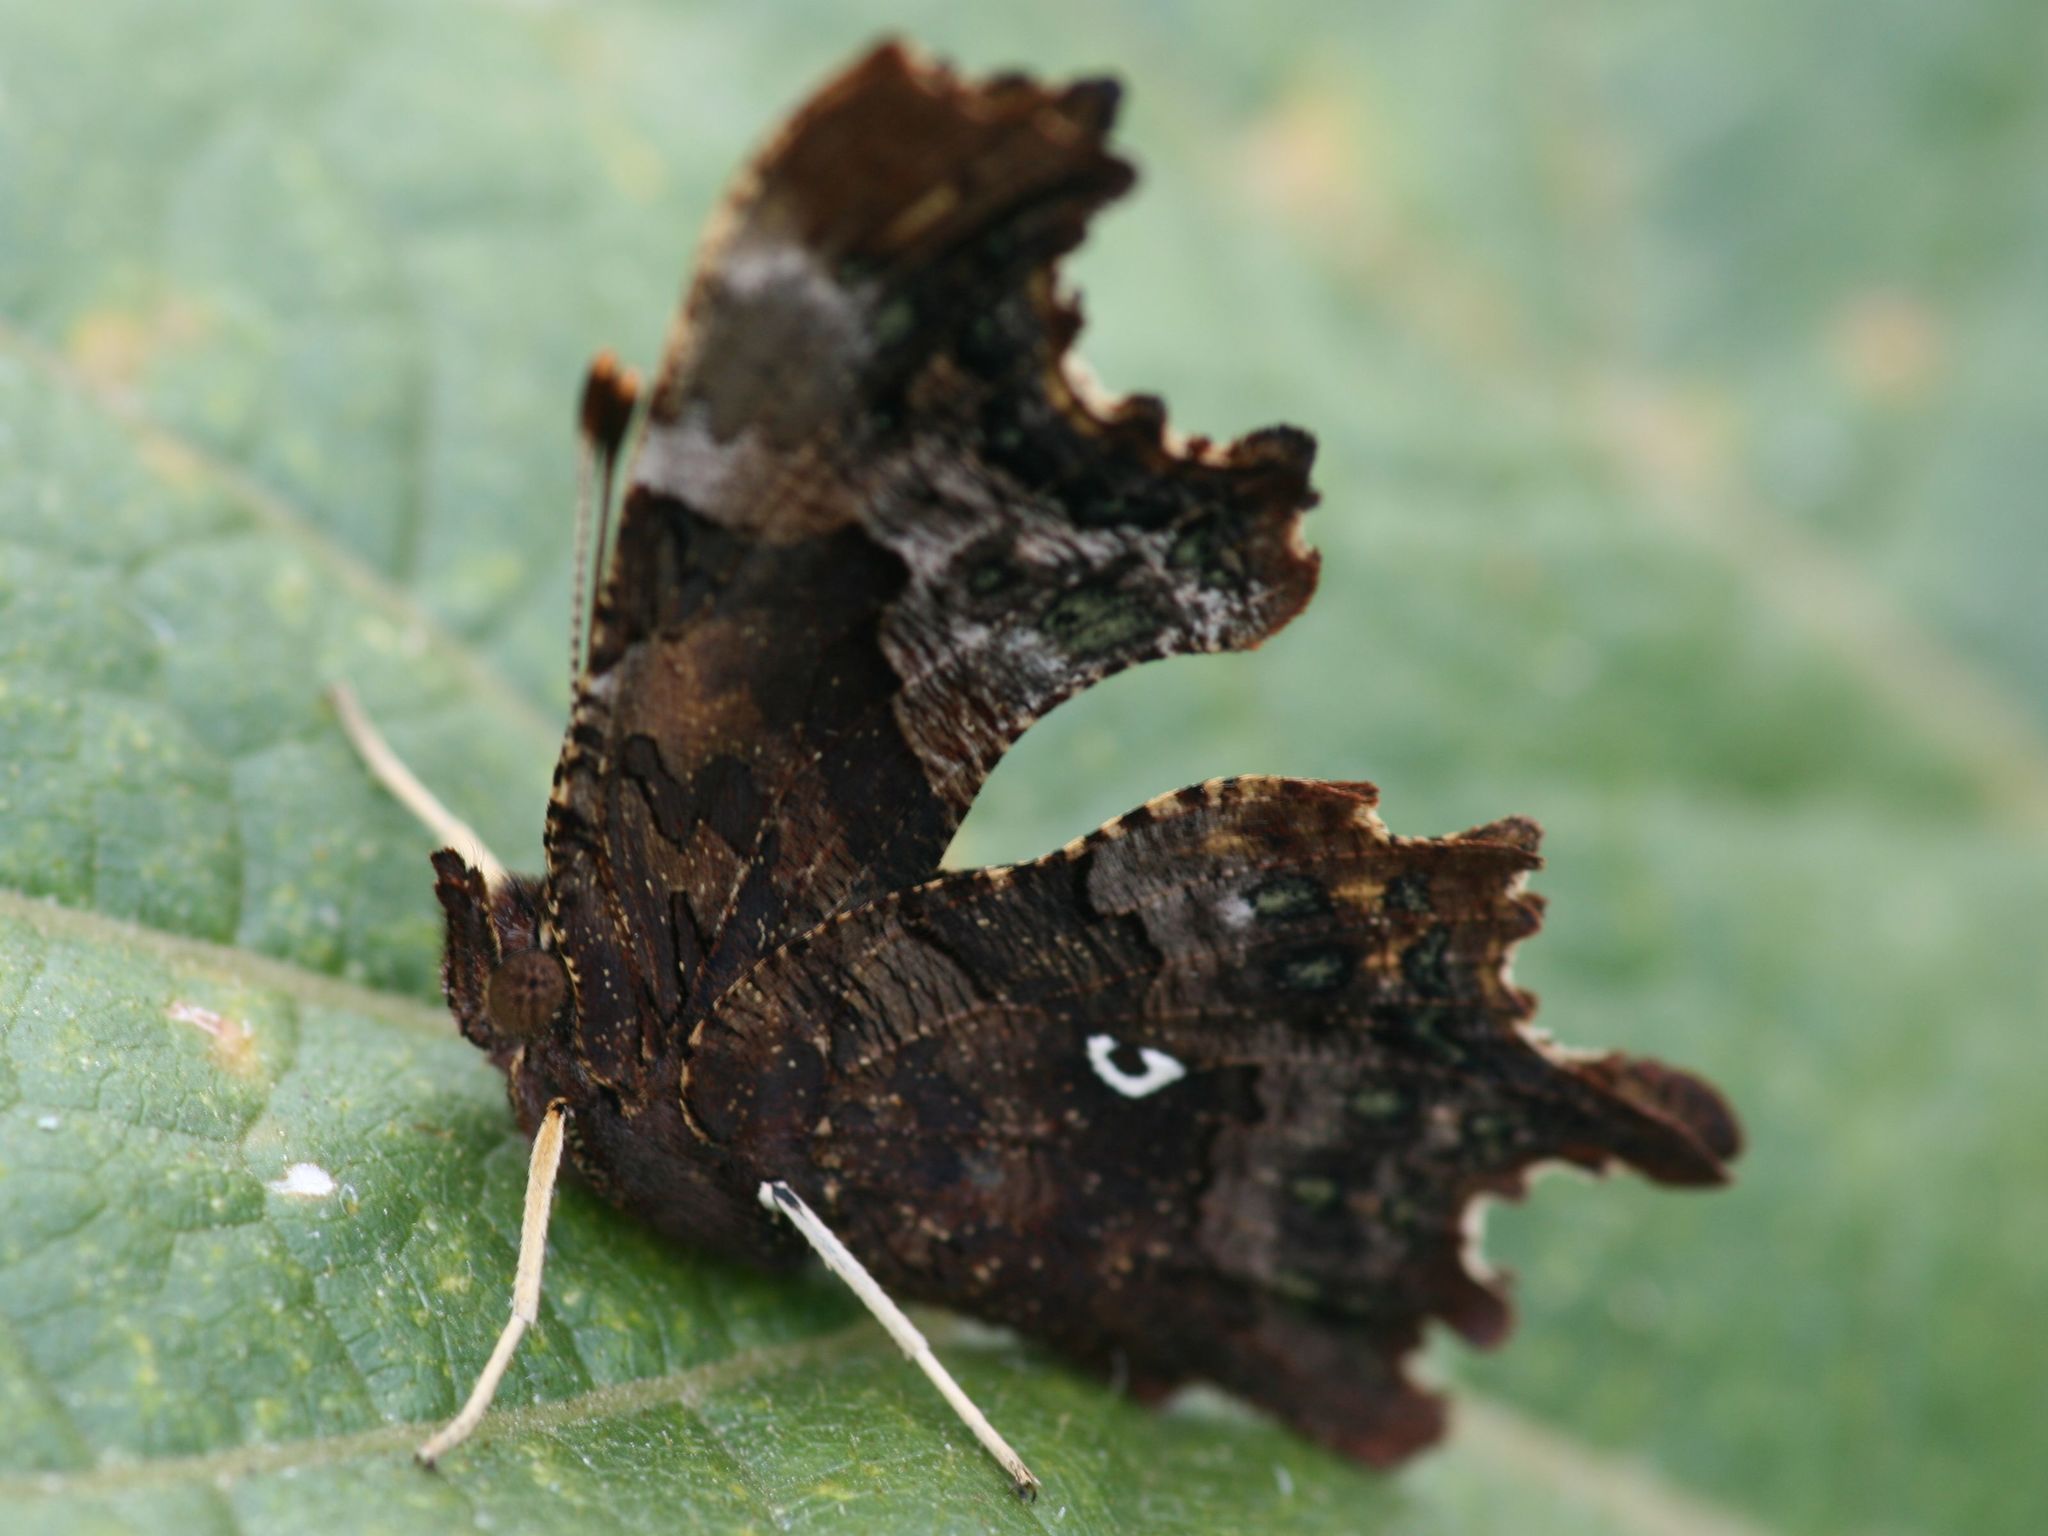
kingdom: Animalia
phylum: Arthropoda
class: Insecta
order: Lepidoptera
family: Nymphalidae
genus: Polygonia
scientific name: Polygonia c-album
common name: Comma
